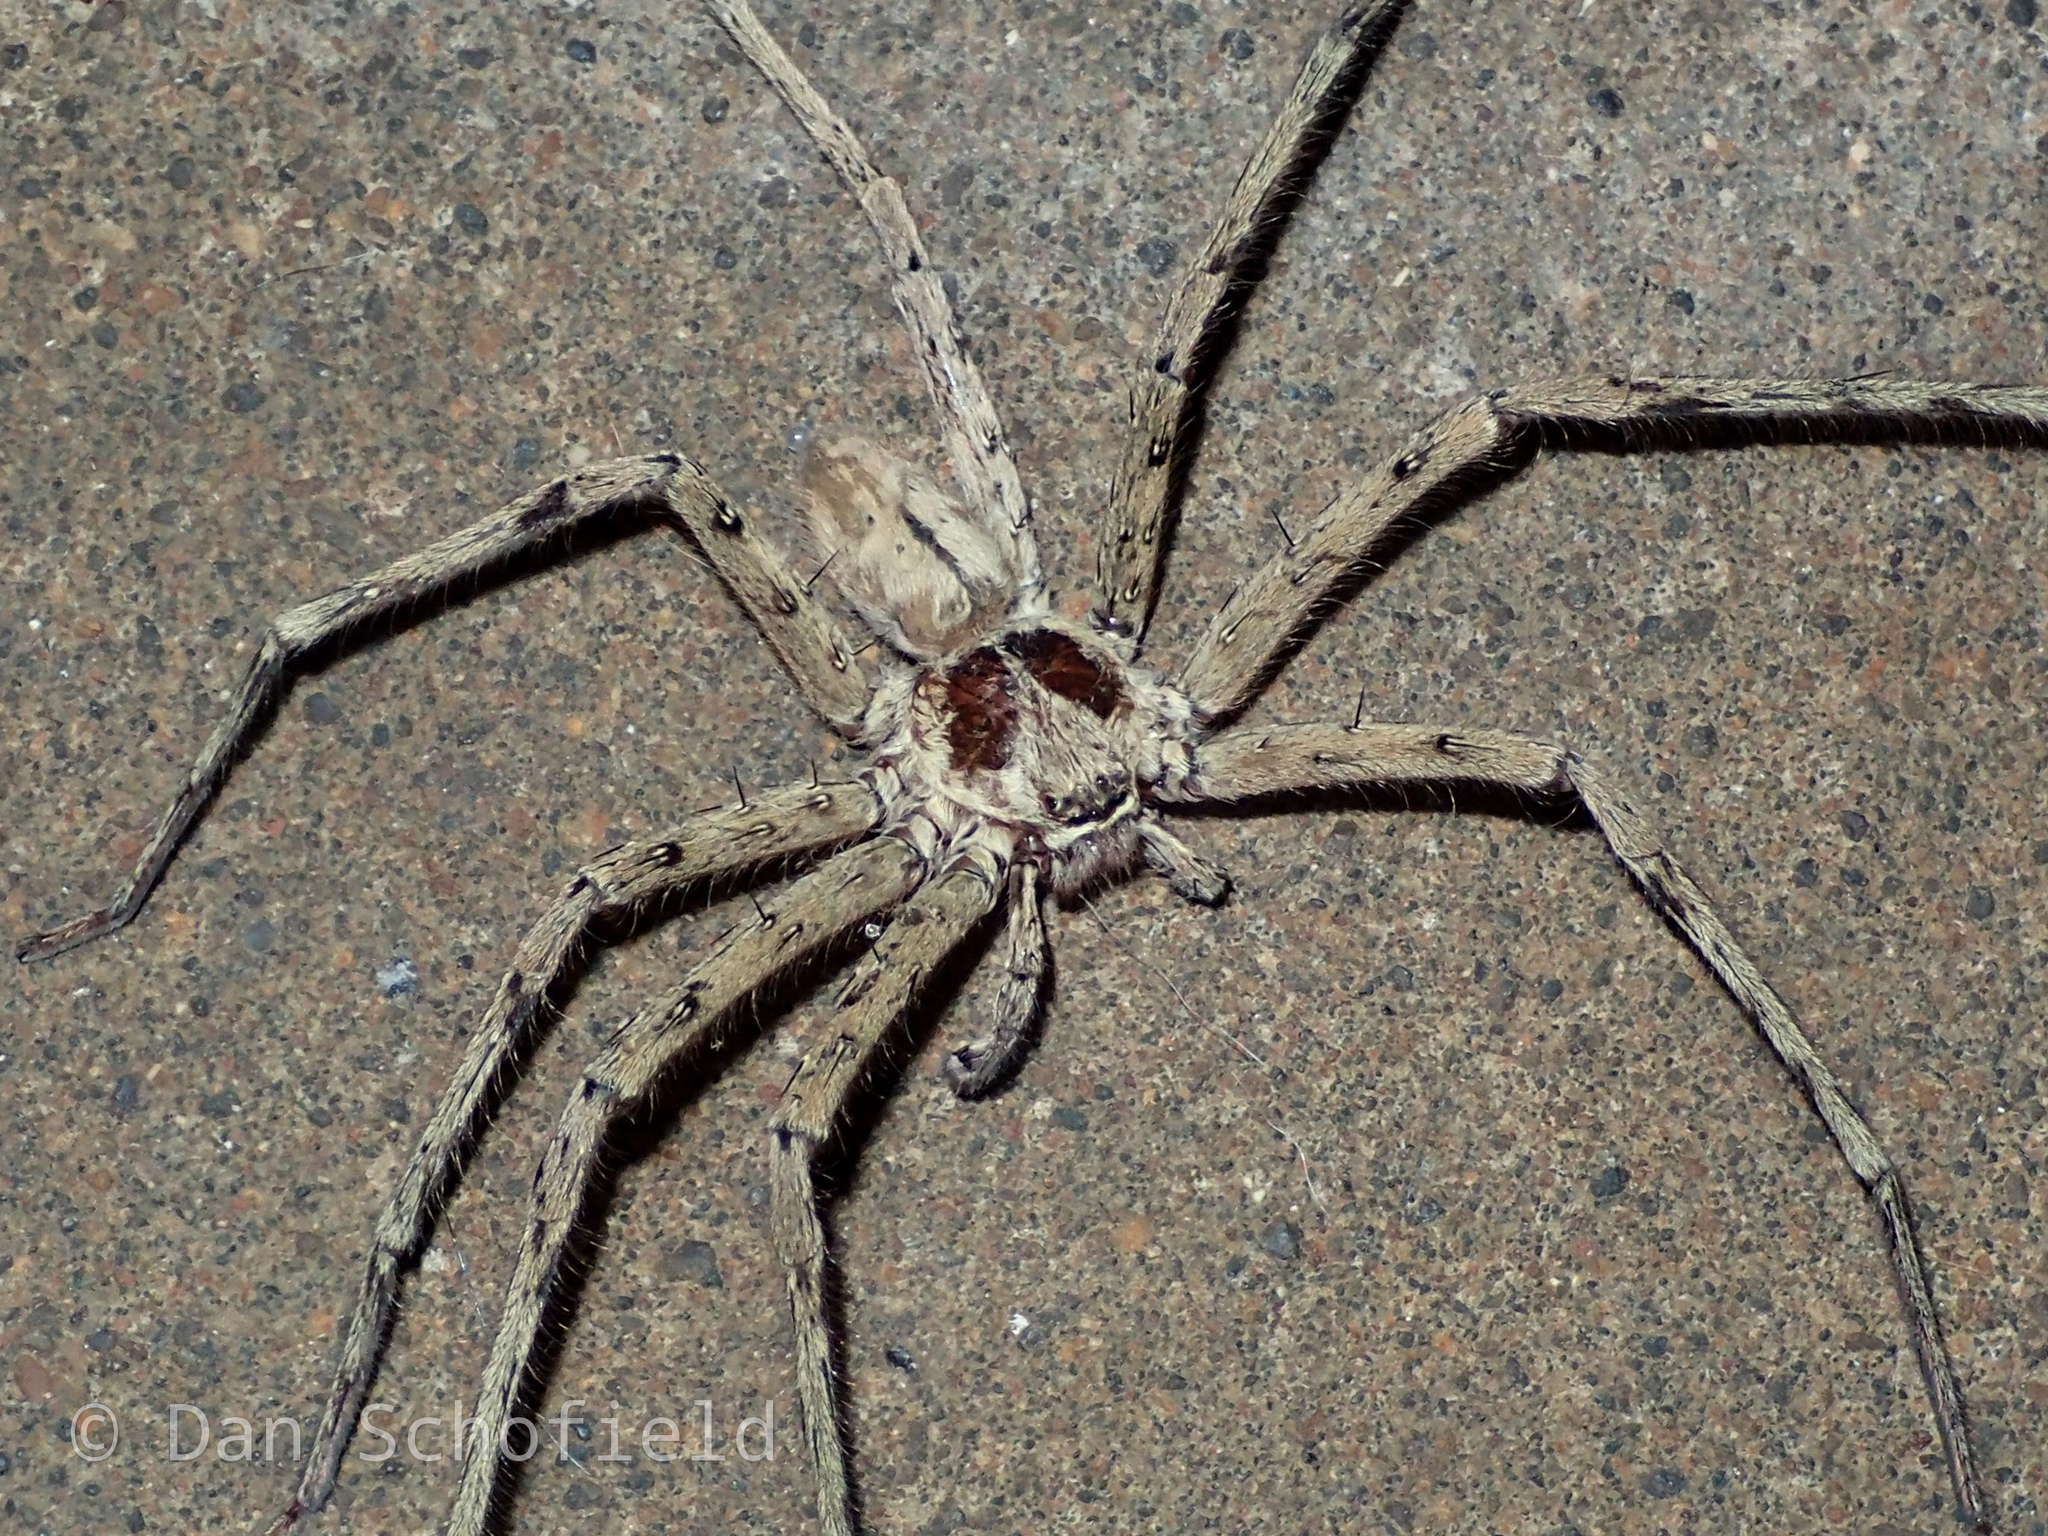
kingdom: Animalia
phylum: Arthropoda
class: Arachnida
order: Araneae
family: Sparassidae
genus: Heteropoda
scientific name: Heteropoda venatoria
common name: Huntsman spider
